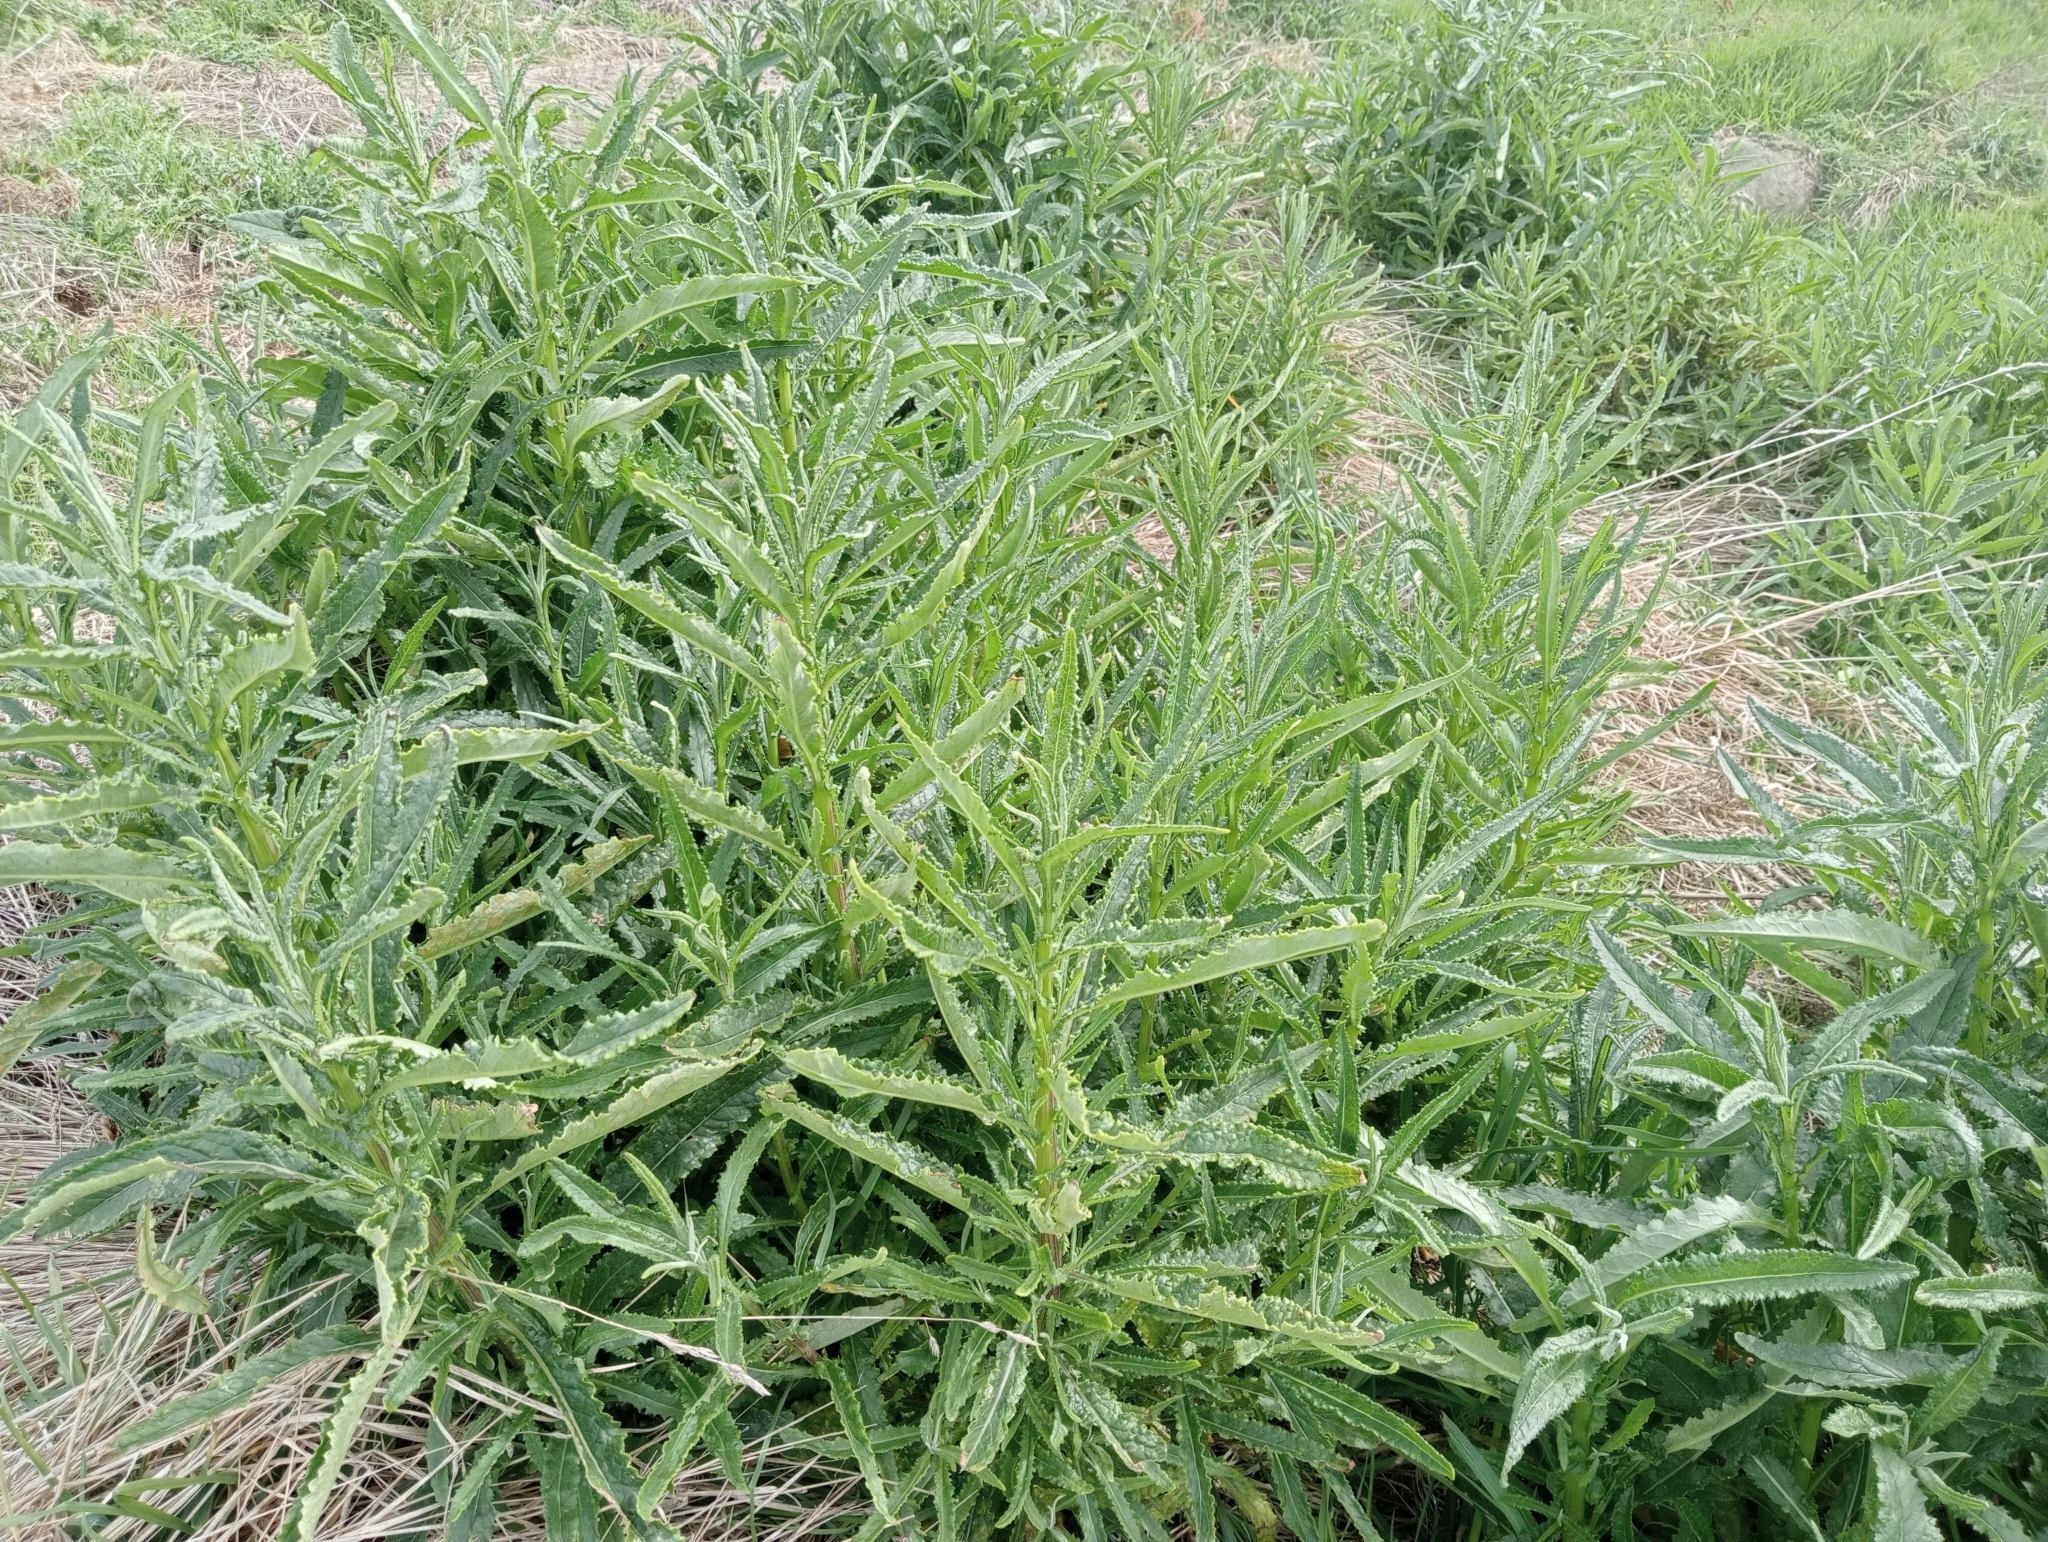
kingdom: Plantae
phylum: Tracheophyta
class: Magnoliopsida
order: Asterales
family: Asteraceae
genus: Senecio
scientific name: Senecio minimus
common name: Toothed fireweed
